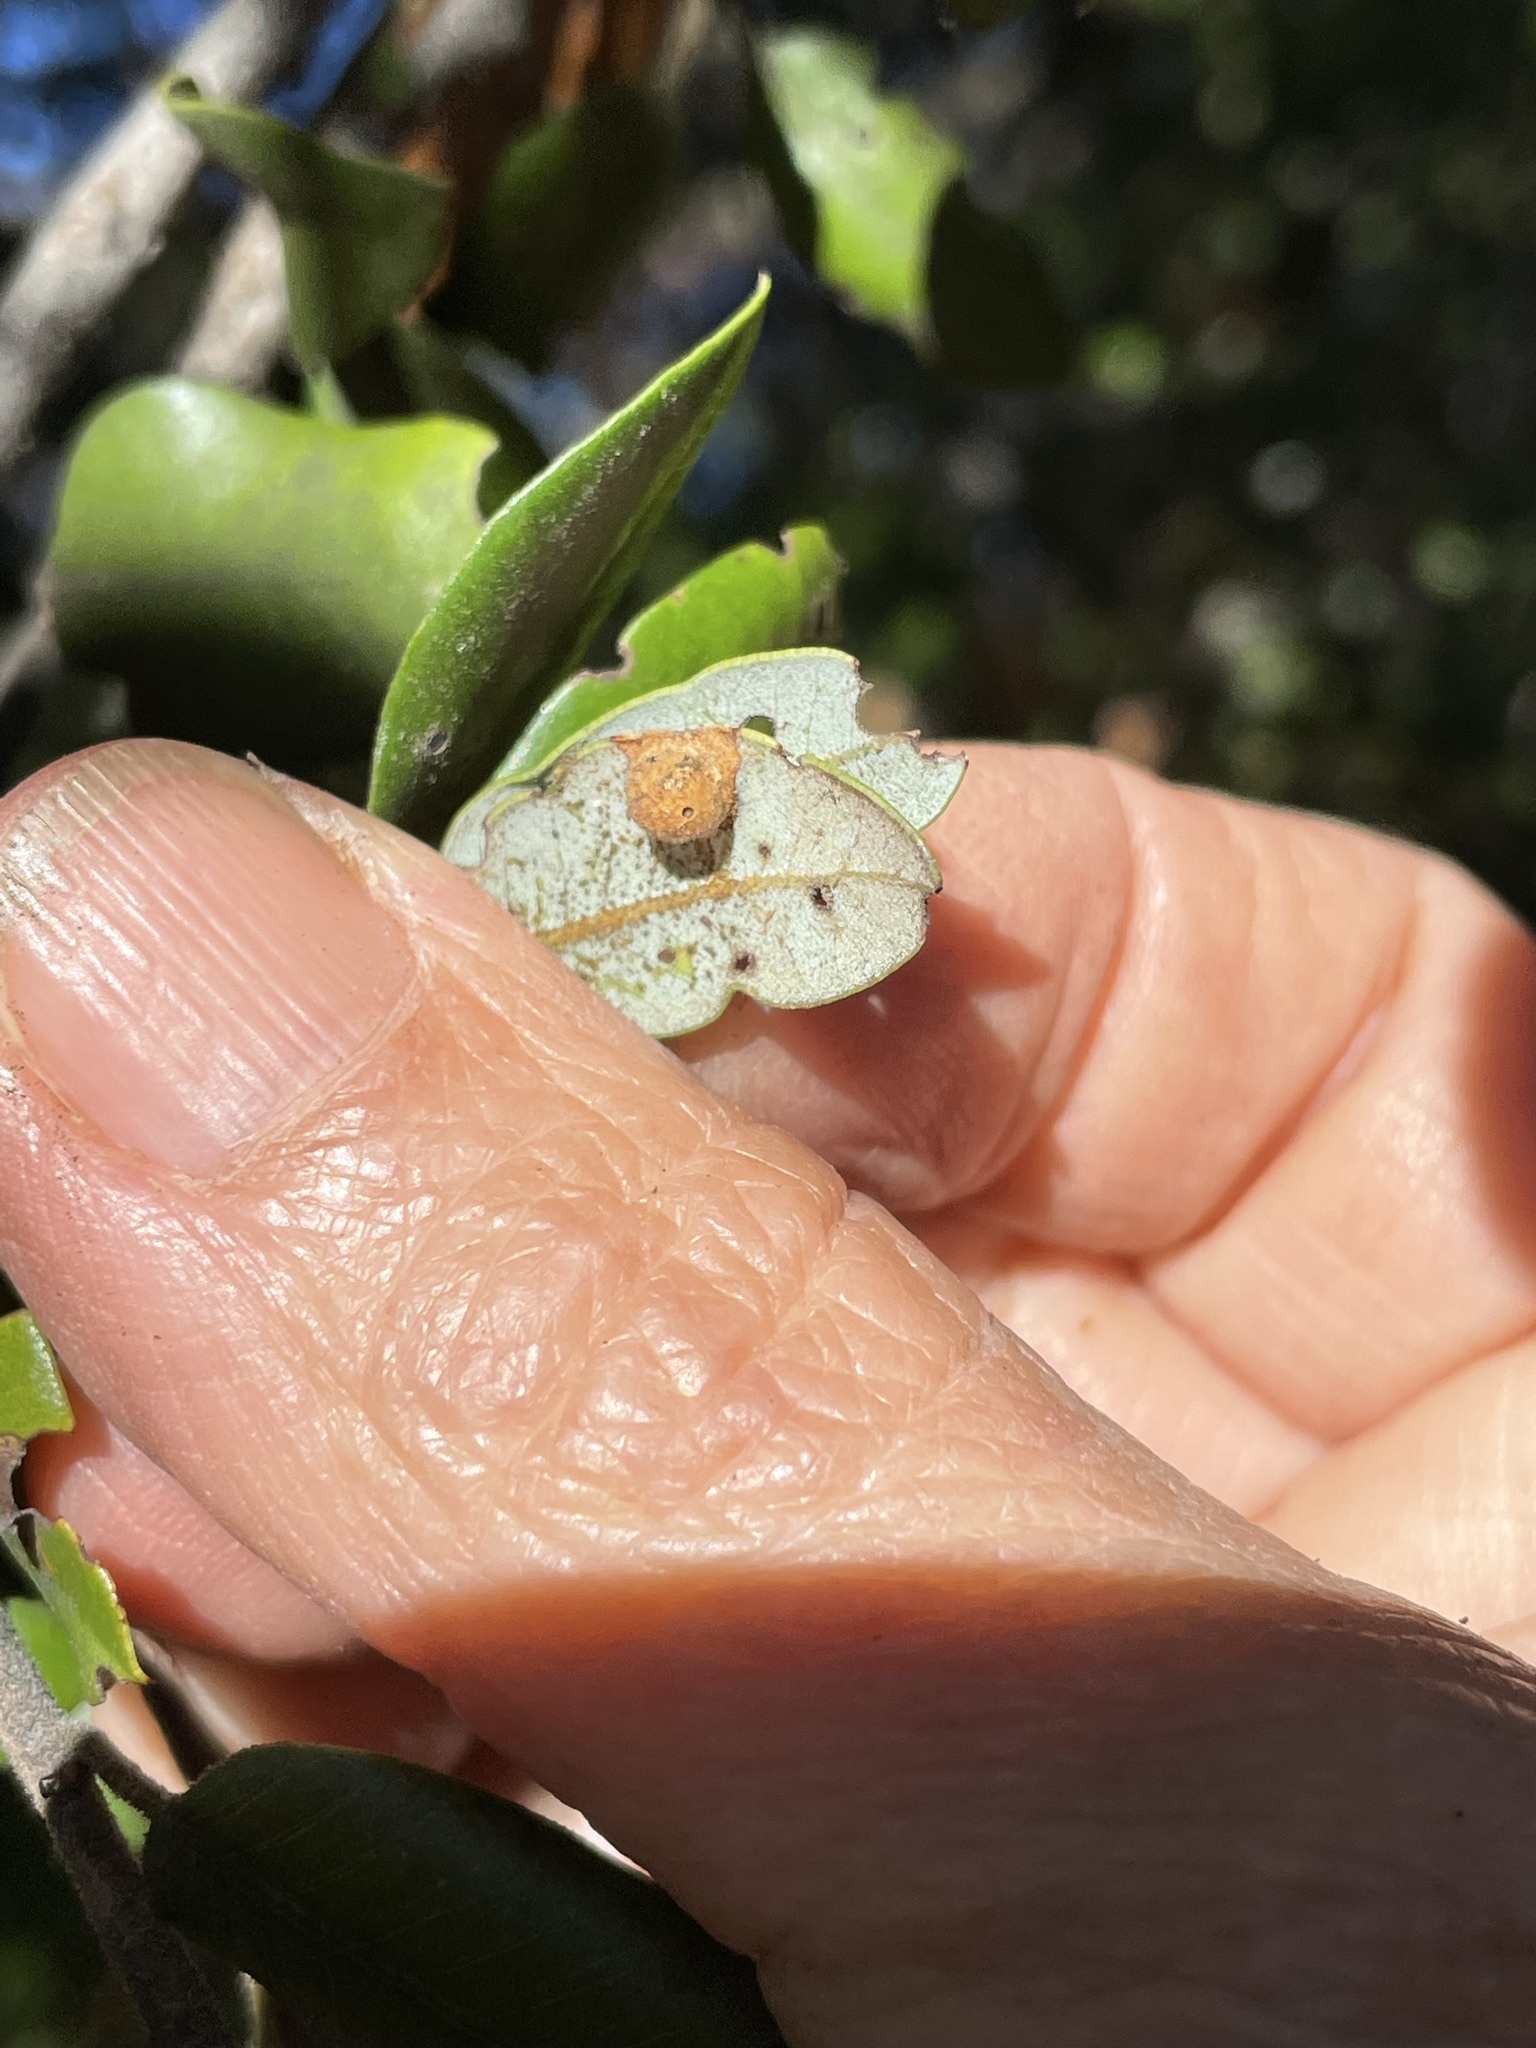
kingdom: Animalia
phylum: Arthropoda
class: Insecta
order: Diptera
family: Cecidomyiidae
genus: Dasineura
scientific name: Dasineura silvestrii
